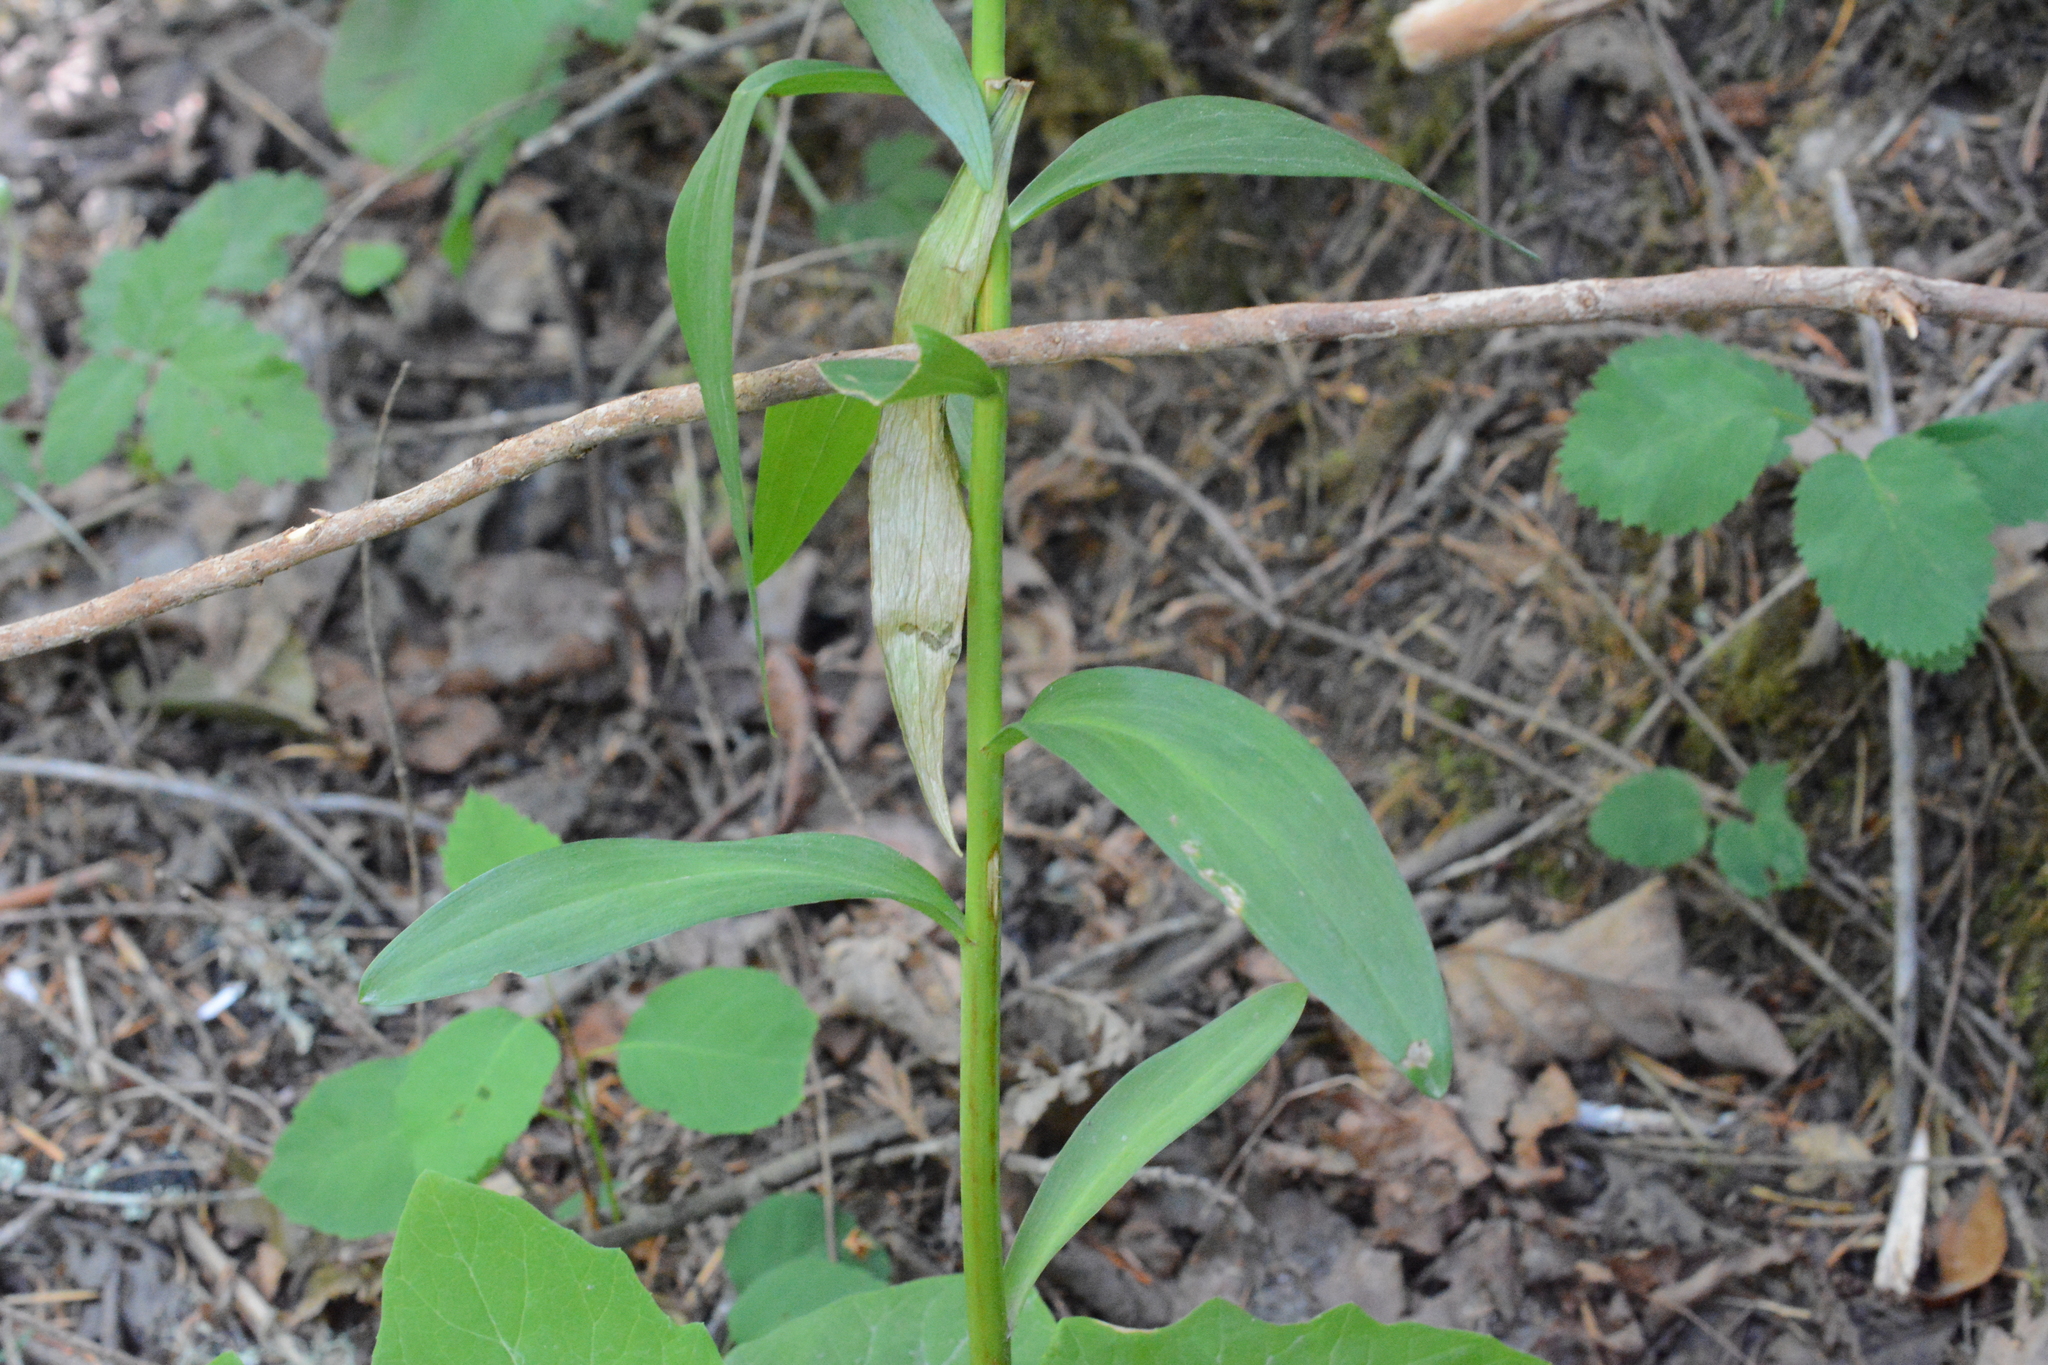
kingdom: Plantae
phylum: Tracheophyta
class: Liliopsida
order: Liliales
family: Liliaceae
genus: Lilium
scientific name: Lilium columbianum
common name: Columbia lily
